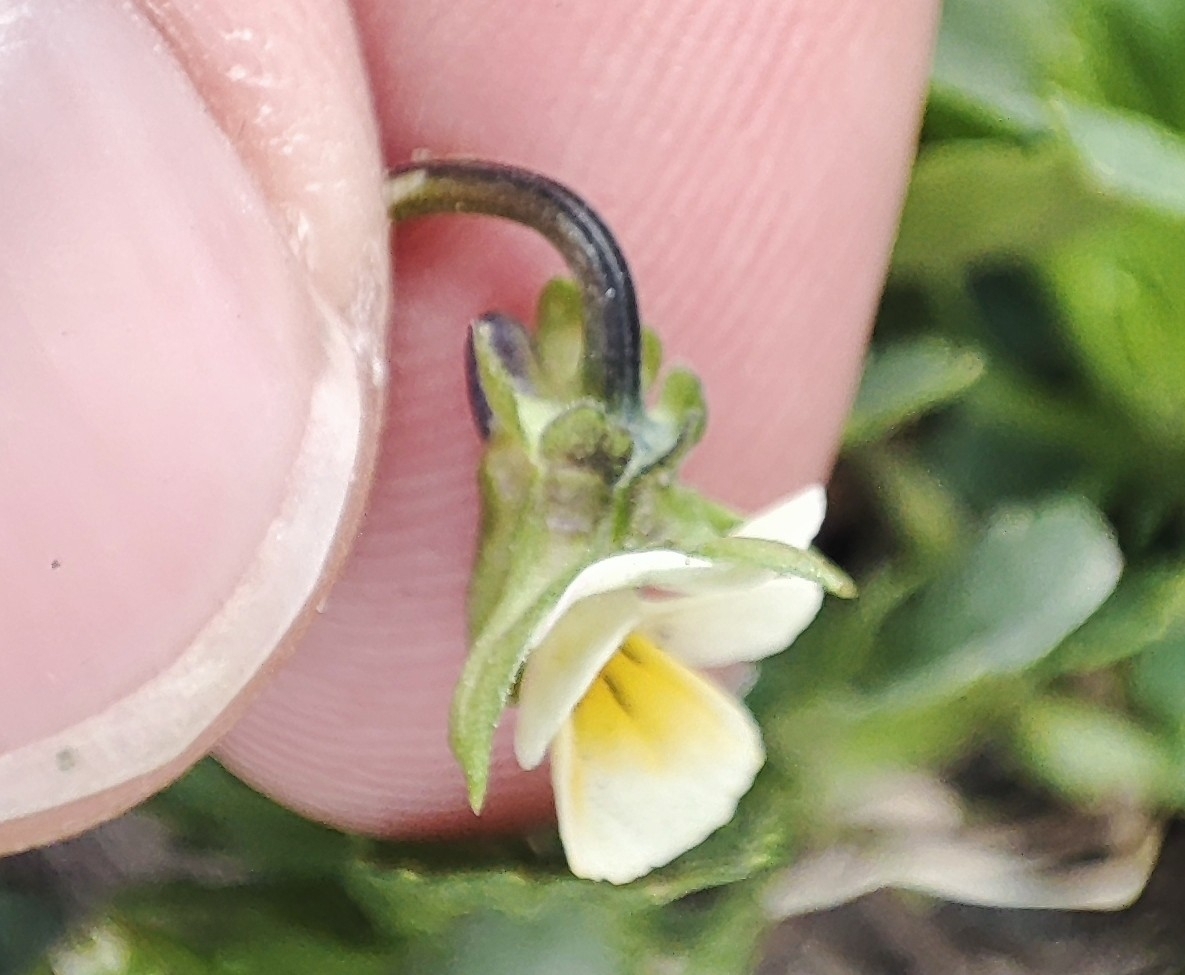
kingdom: Plantae
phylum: Tracheophyta
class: Magnoliopsida
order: Malpighiales
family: Violaceae
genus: Viola
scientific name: Viola arvensis
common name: Field pansy
